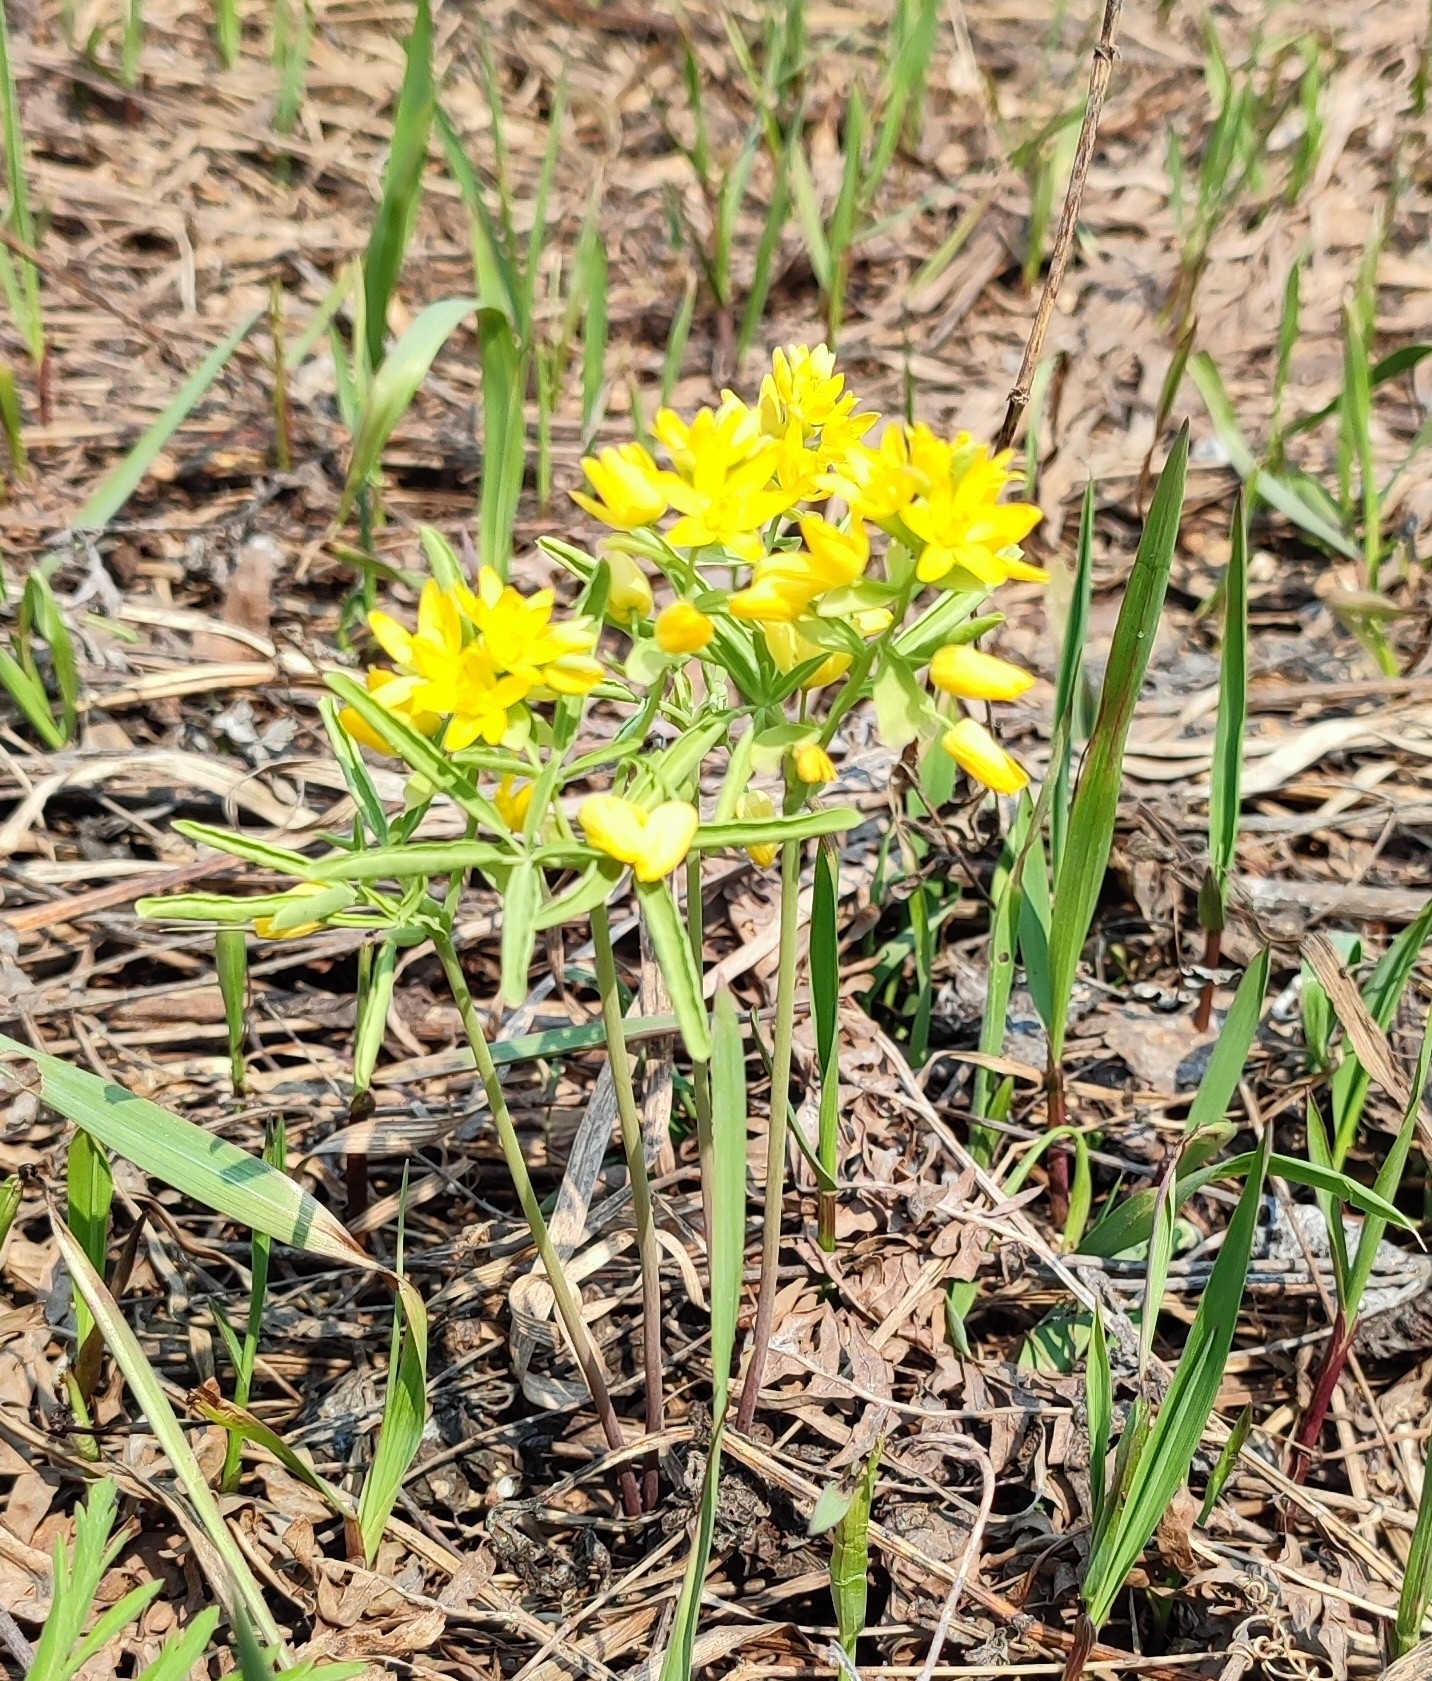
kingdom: Plantae
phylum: Tracheophyta
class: Magnoliopsida
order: Ranunculales
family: Berberidaceae
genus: Gymnospermium
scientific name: Gymnospermium altaicum
